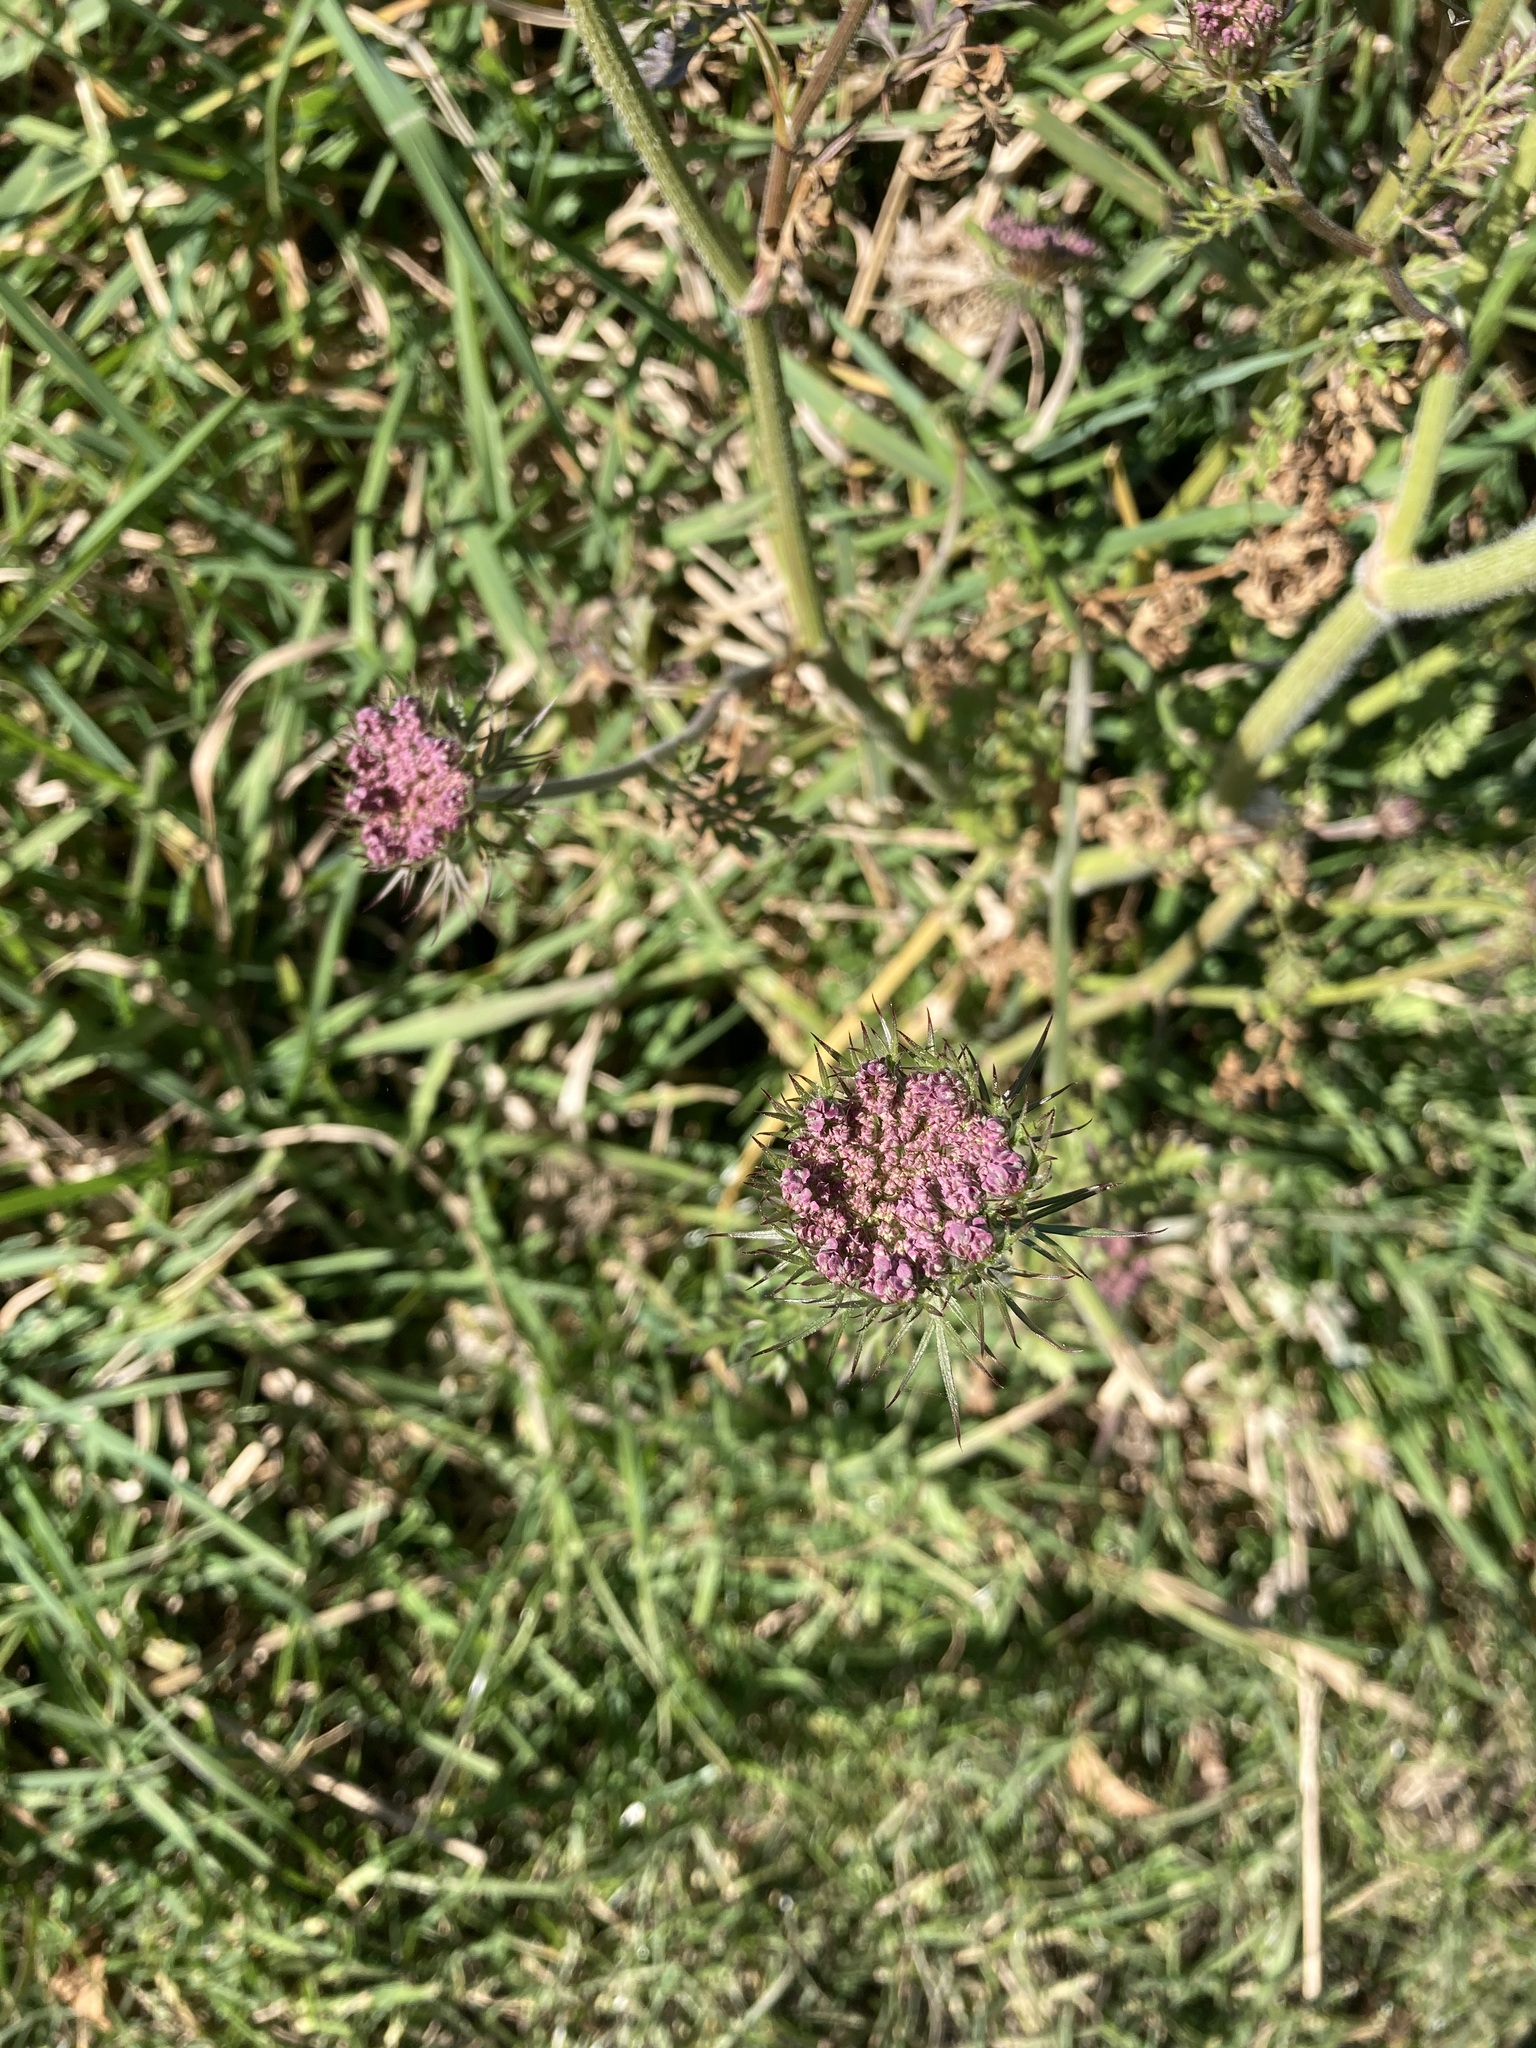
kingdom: Plantae
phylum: Tracheophyta
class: Magnoliopsida
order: Apiales
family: Apiaceae
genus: Daucus
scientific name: Daucus carota
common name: Wild carrot
